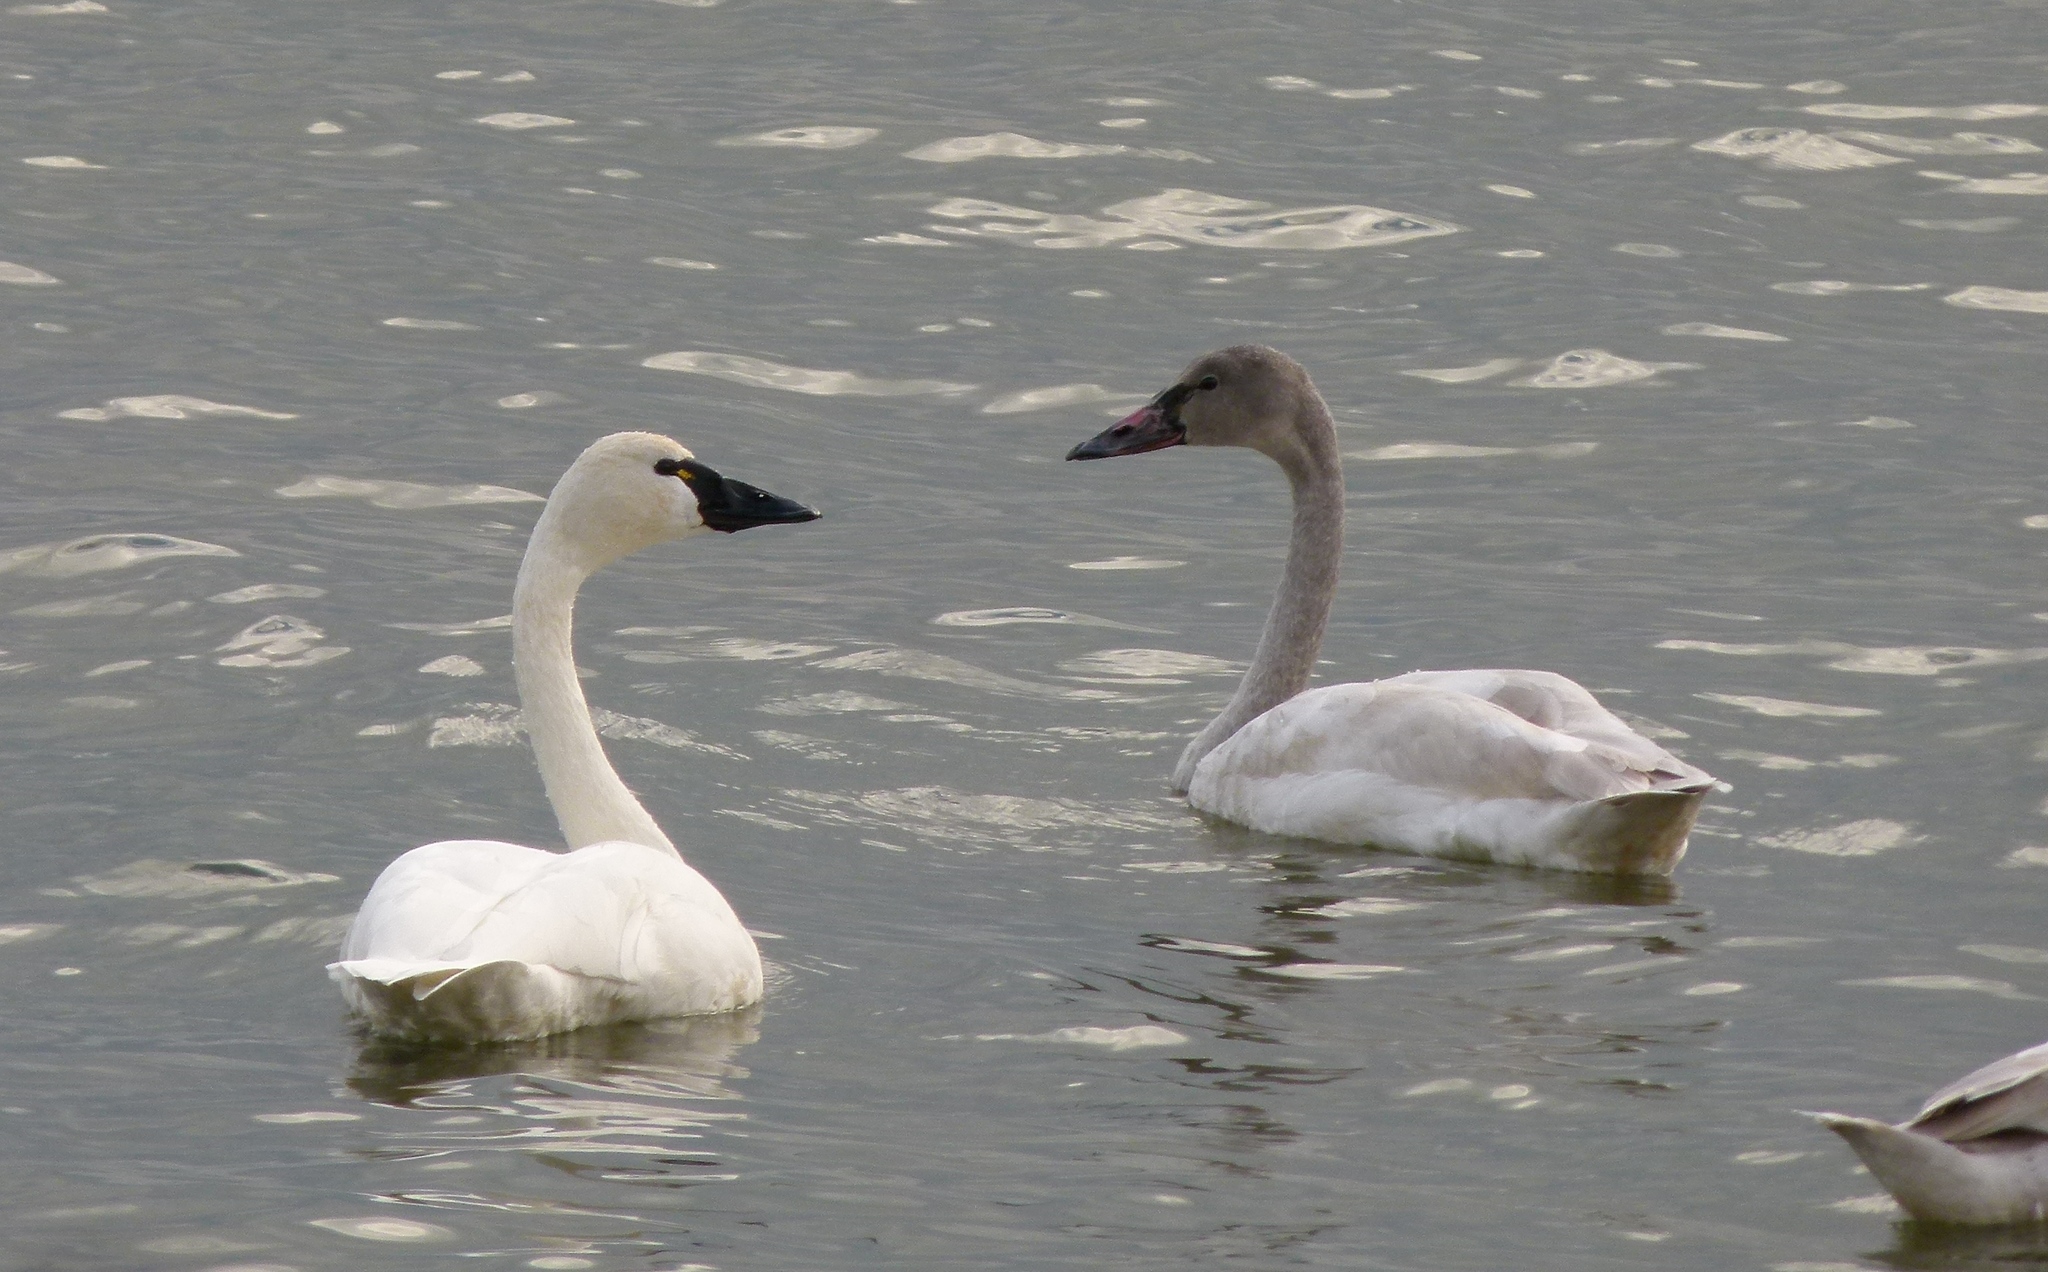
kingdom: Animalia
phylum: Chordata
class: Aves
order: Anseriformes
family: Anatidae
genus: Cygnus
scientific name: Cygnus columbianus
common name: Tundra swan
